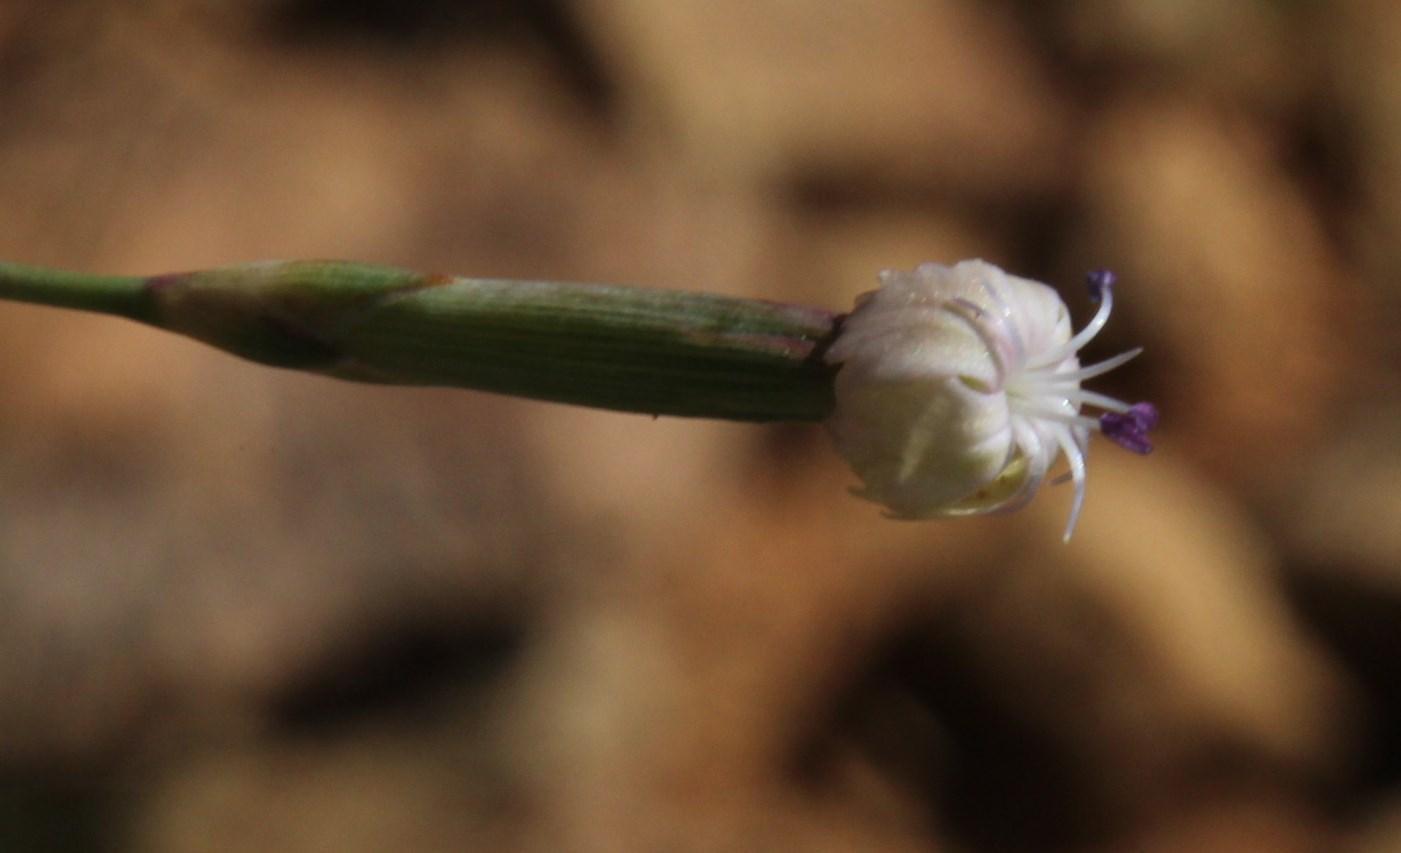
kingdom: Plantae
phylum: Tracheophyta
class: Magnoliopsida
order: Caryophyllales
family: Caryophyllaceae
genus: Dianthus
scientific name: Dianthus micropetalus
